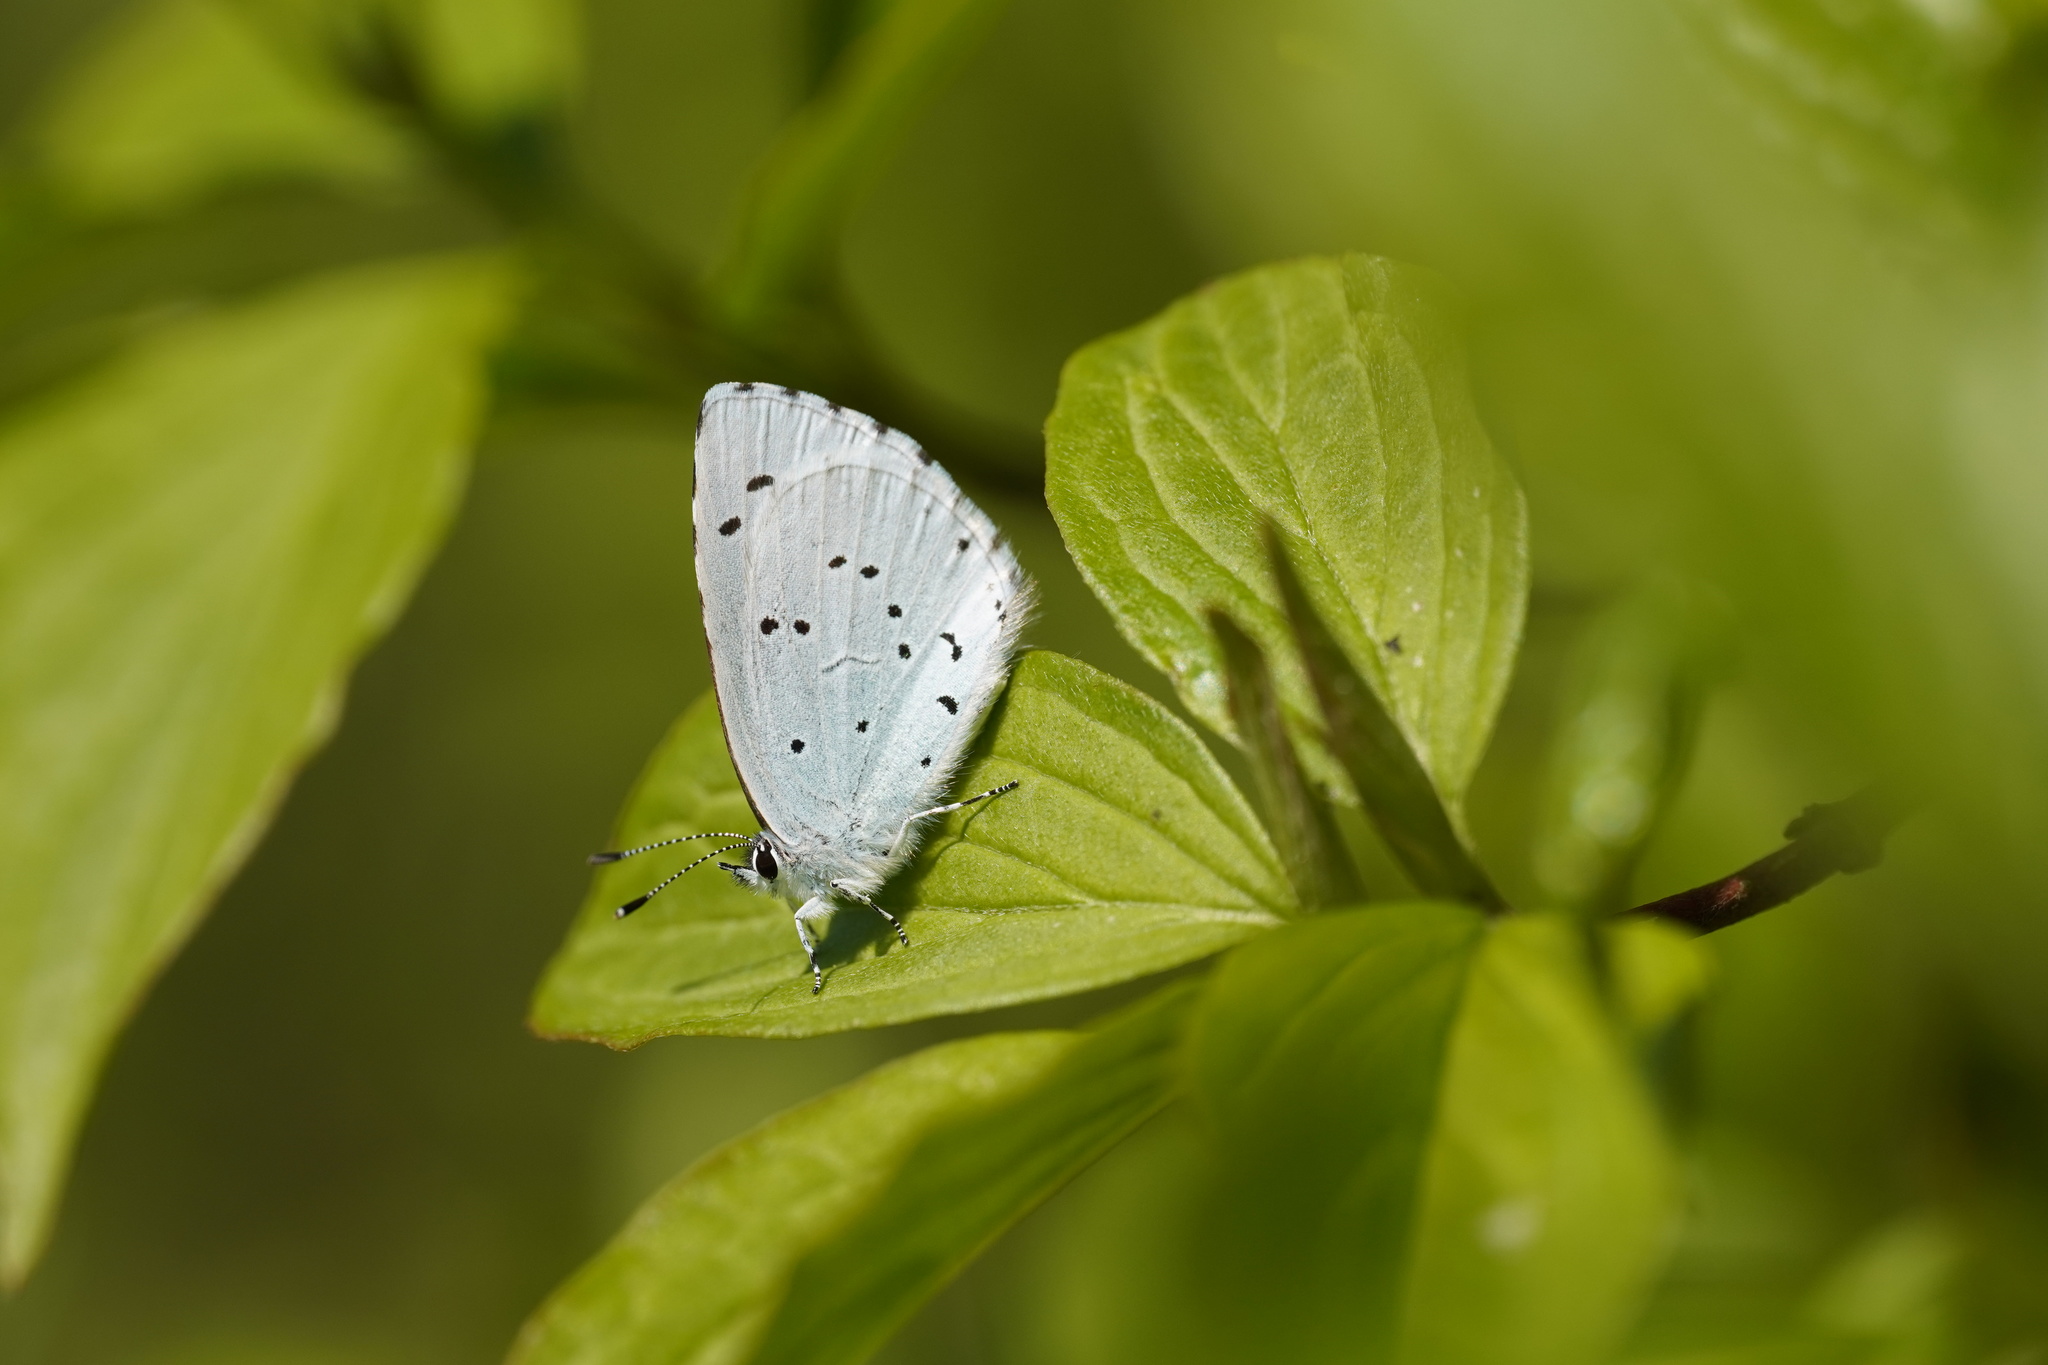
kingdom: Animalia
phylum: Arthropoda
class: Insecta
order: Lepidoptera
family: Lycaenidae
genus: Celastrina
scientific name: Celastrina argiolus
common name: Holly blue
